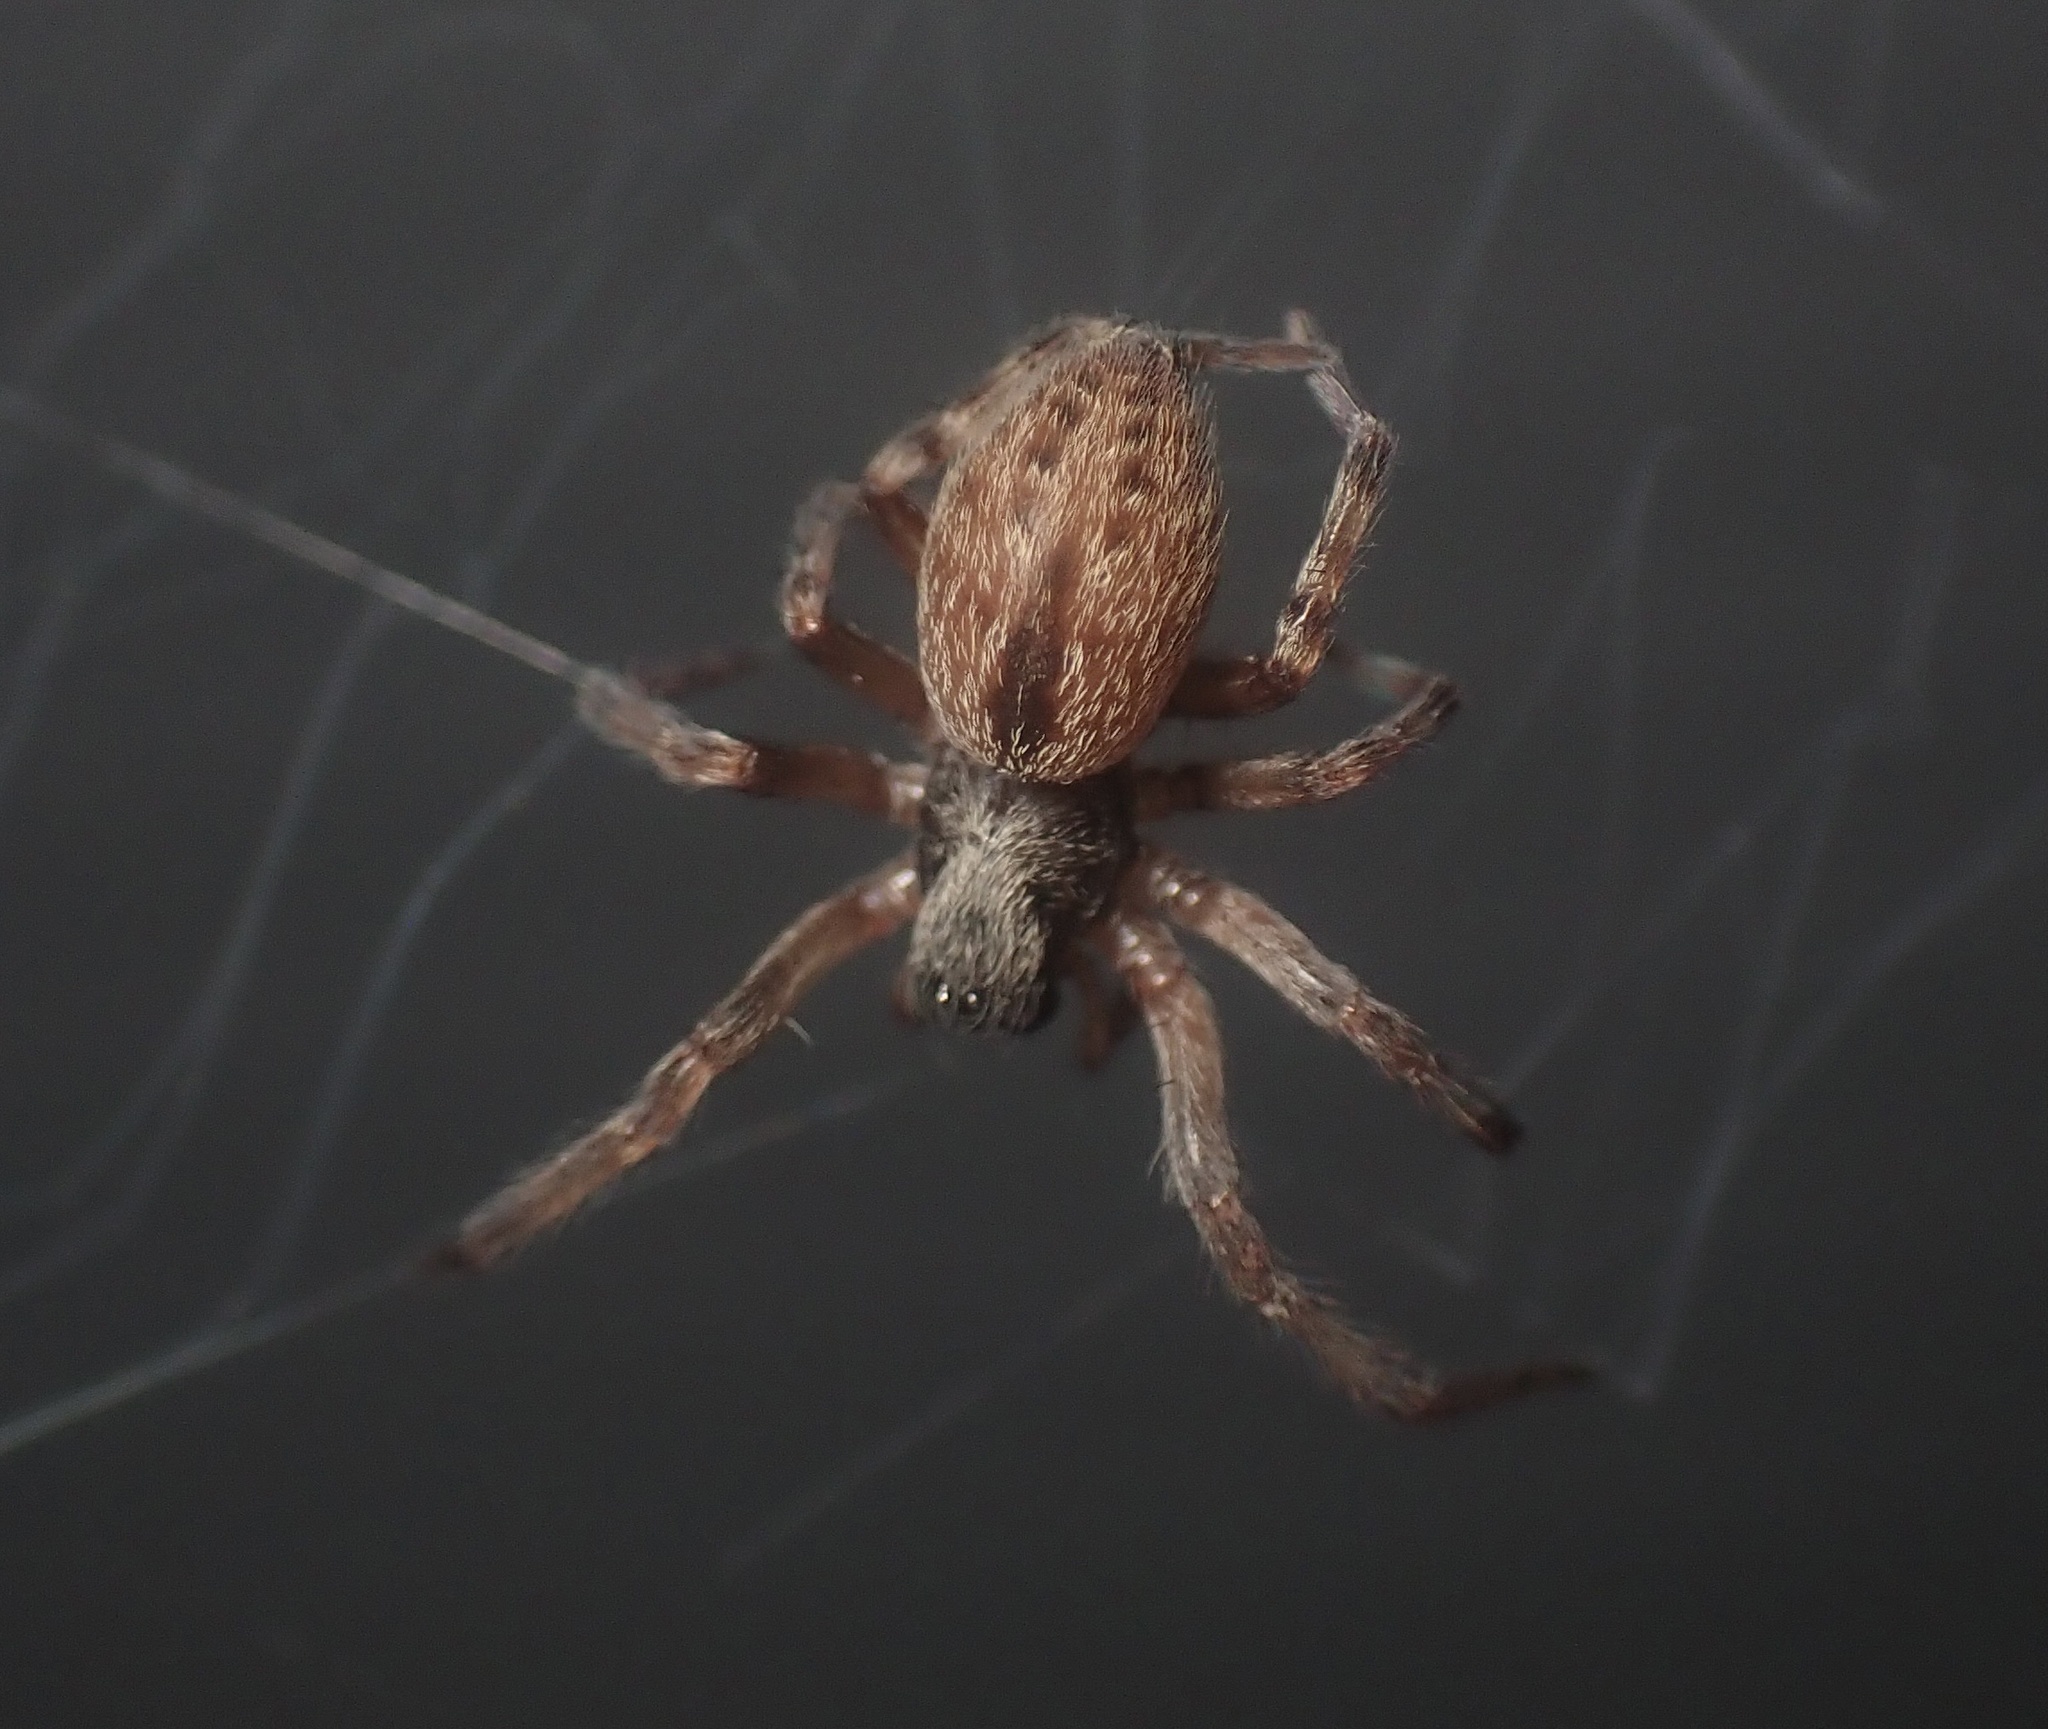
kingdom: Animalia
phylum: Arthropoda
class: Arachnida
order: Araneae
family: Desidae
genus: Badumna
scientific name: Badumna longinqua
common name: Gray house spider
